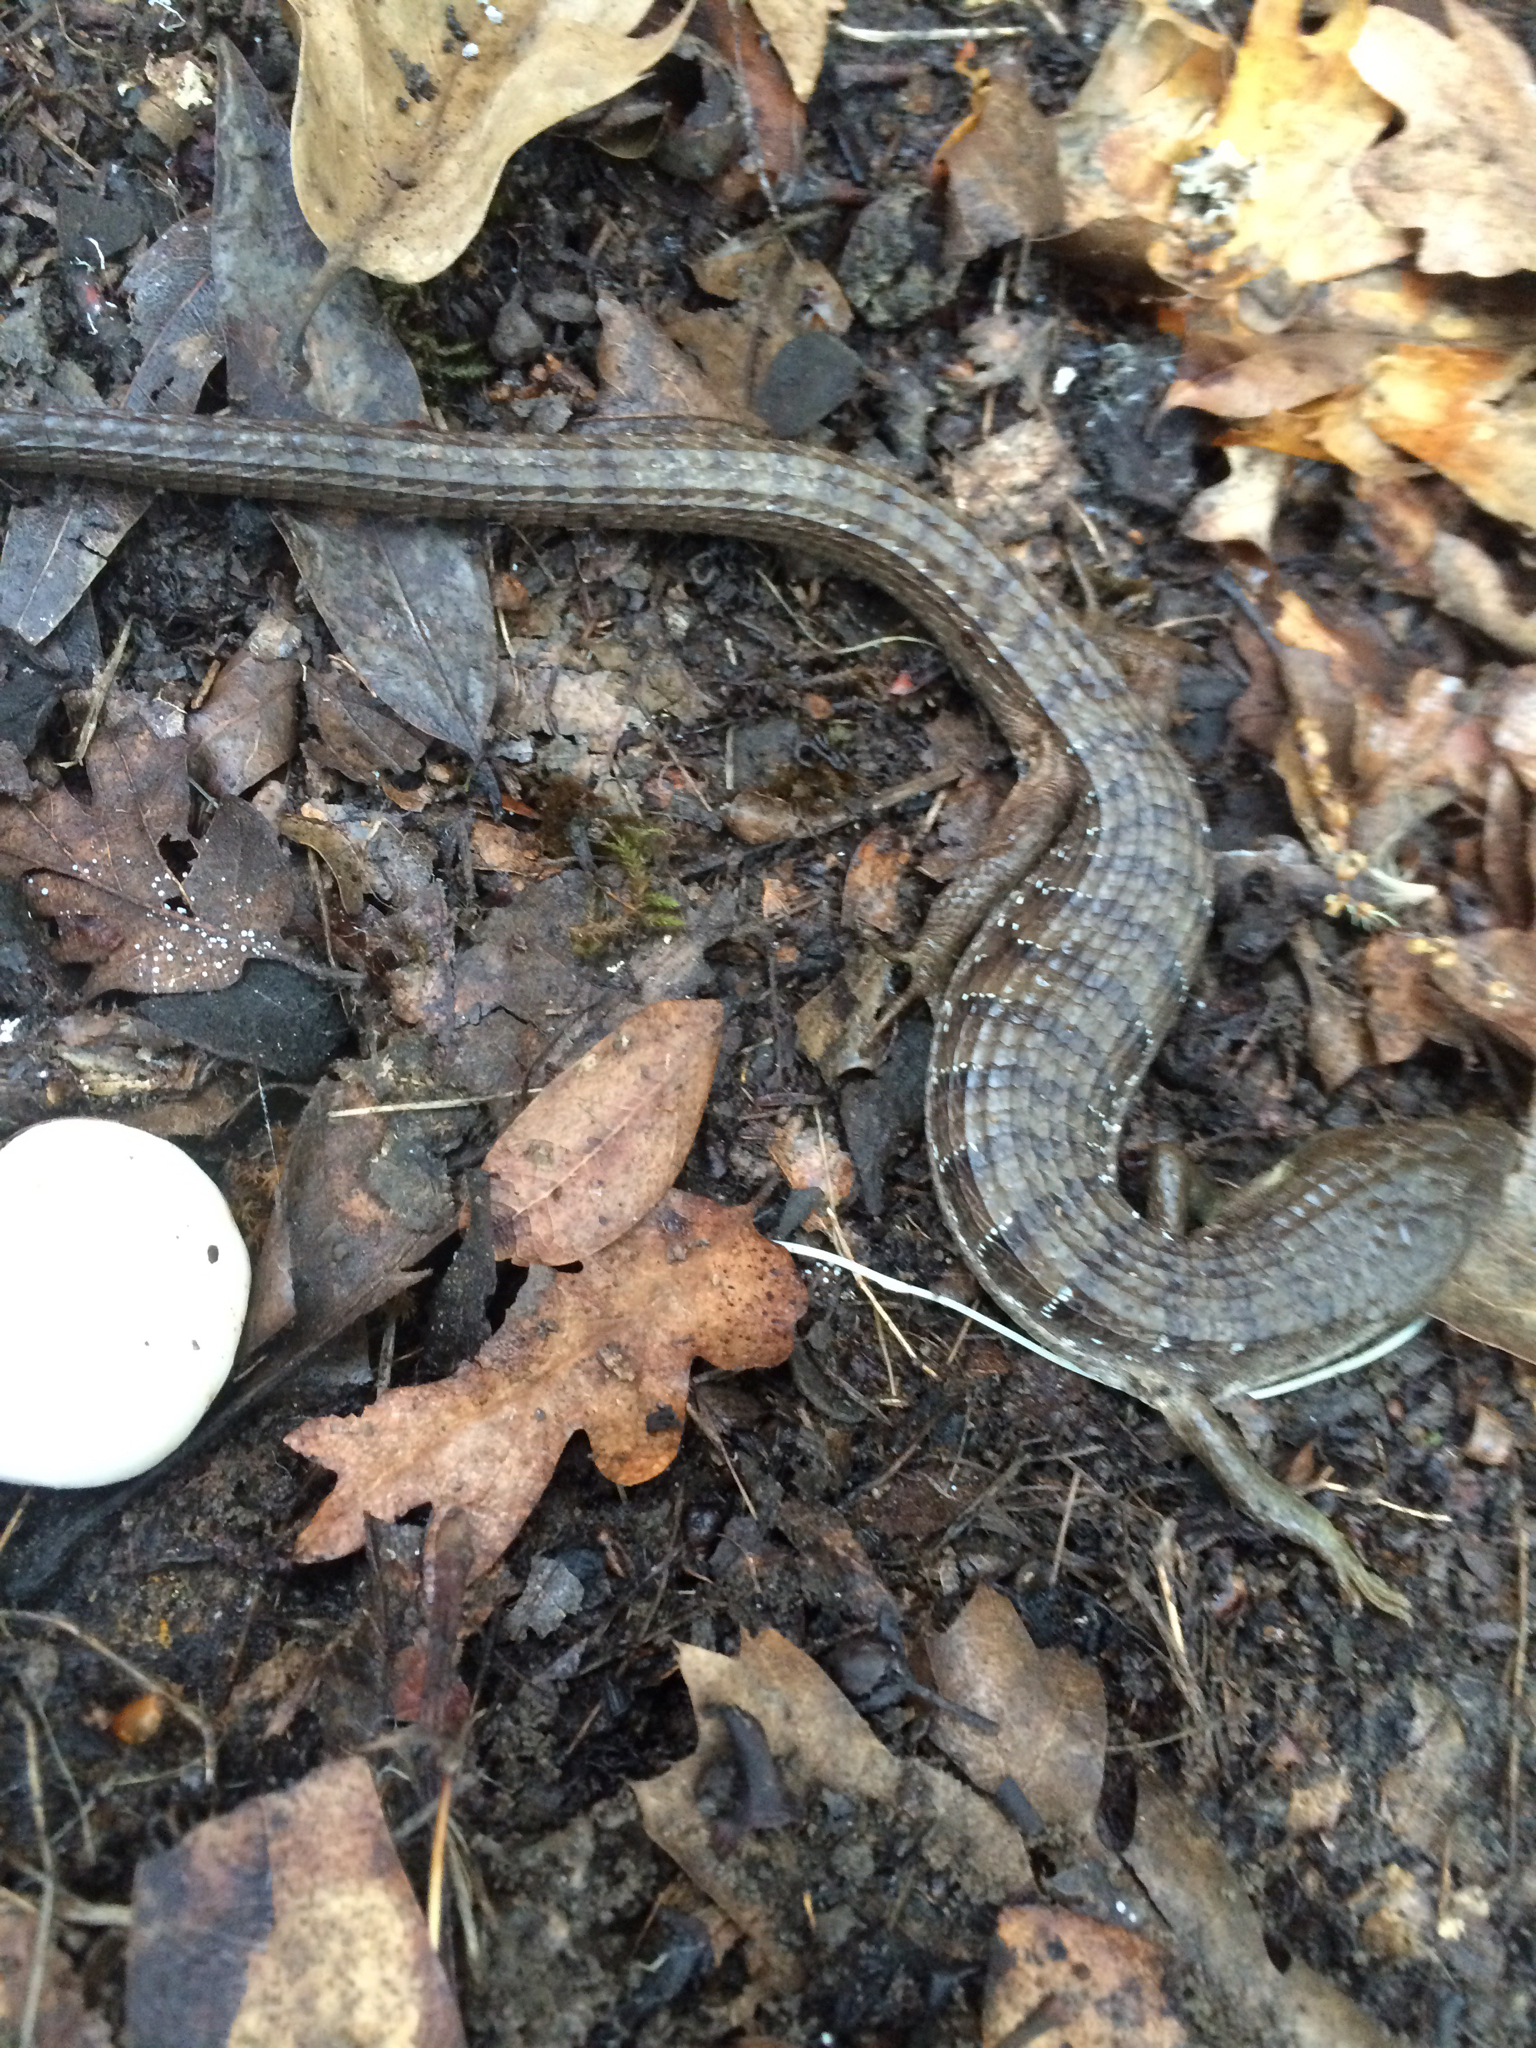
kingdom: Animalia
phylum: Chordata
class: Squamata
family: Anguidae
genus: Elgaria
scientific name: Elgaria multicarinata
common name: Southern alligator lizard
